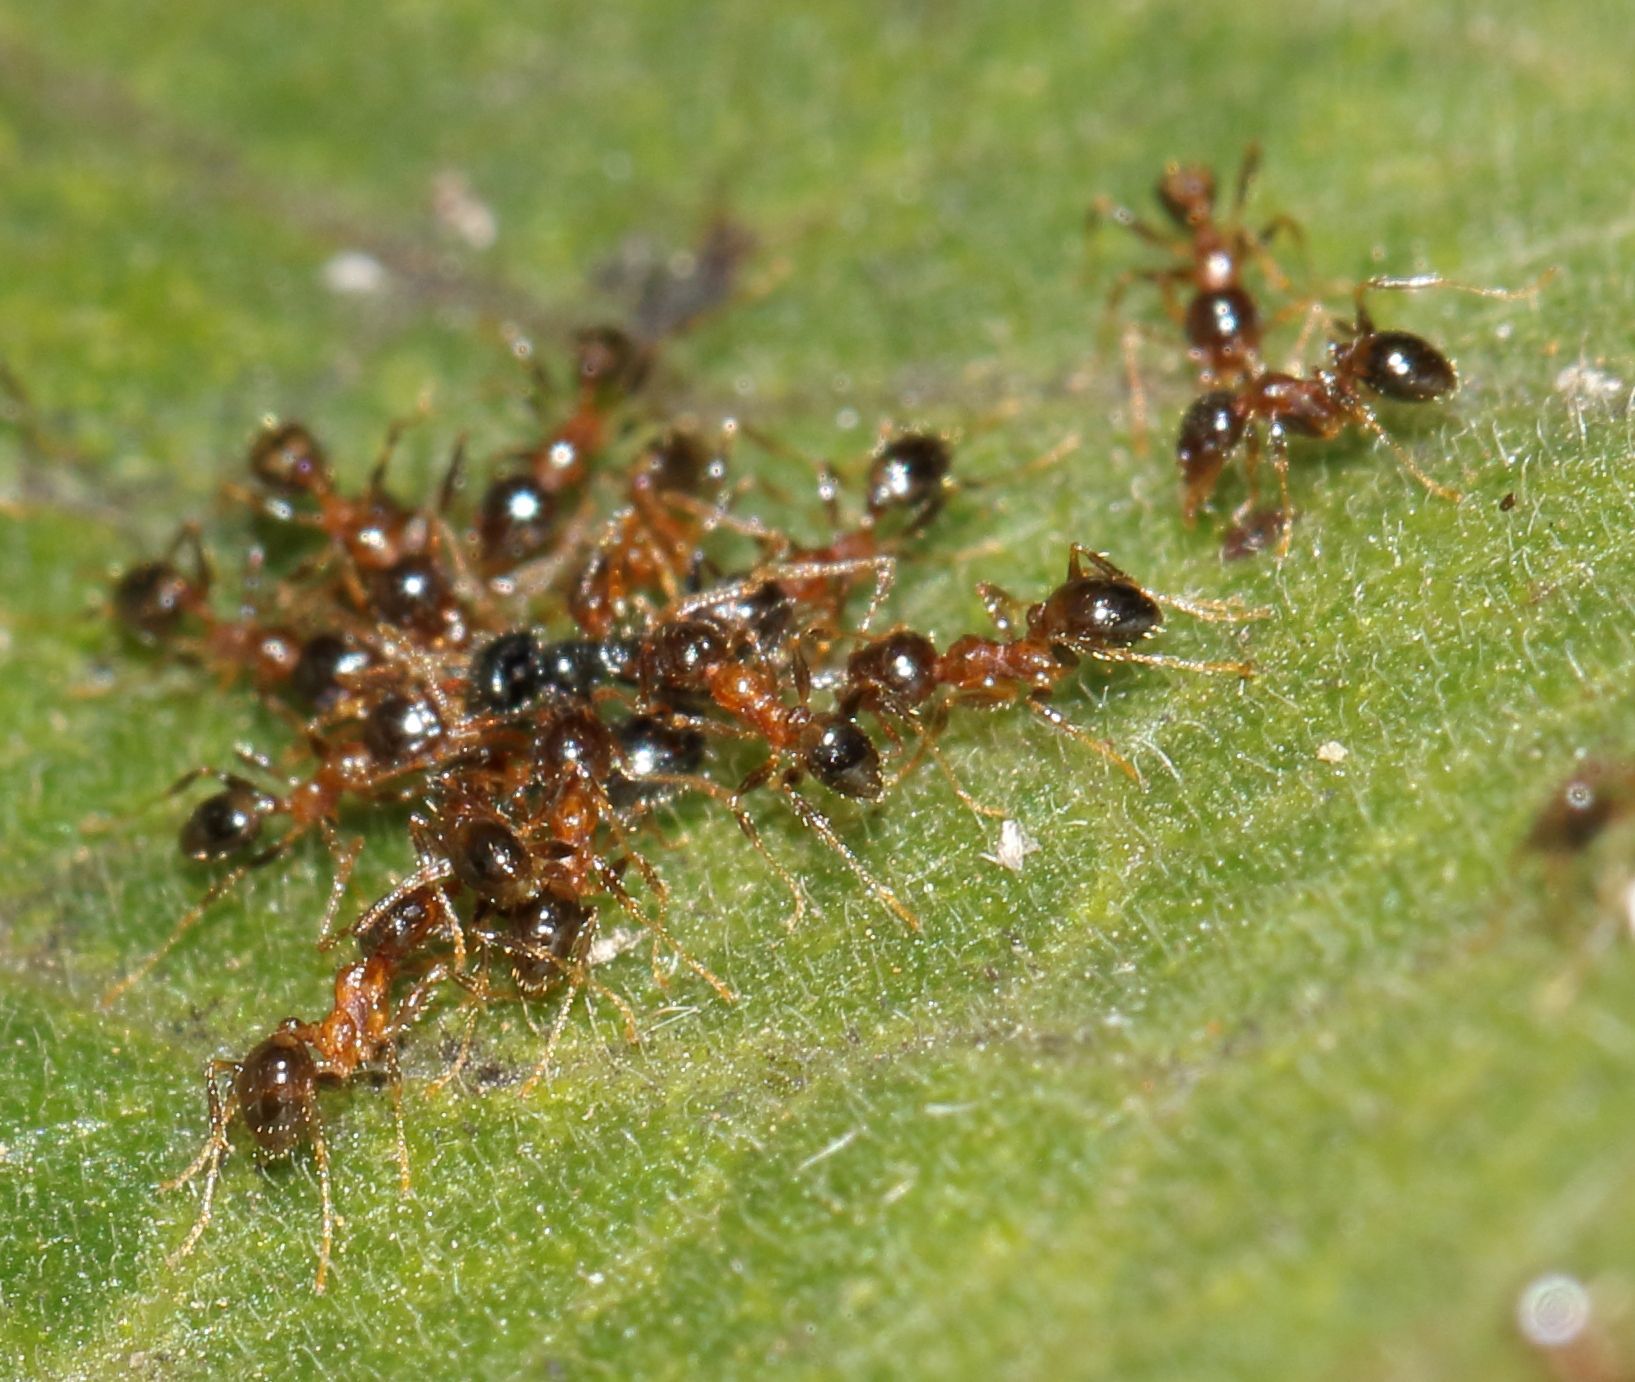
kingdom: Animalia
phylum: Arthropoda
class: Insecta
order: Hymenoptera
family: Formicidae
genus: Pheidole
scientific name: Pheidole megacephala
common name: Bigheaded ant
